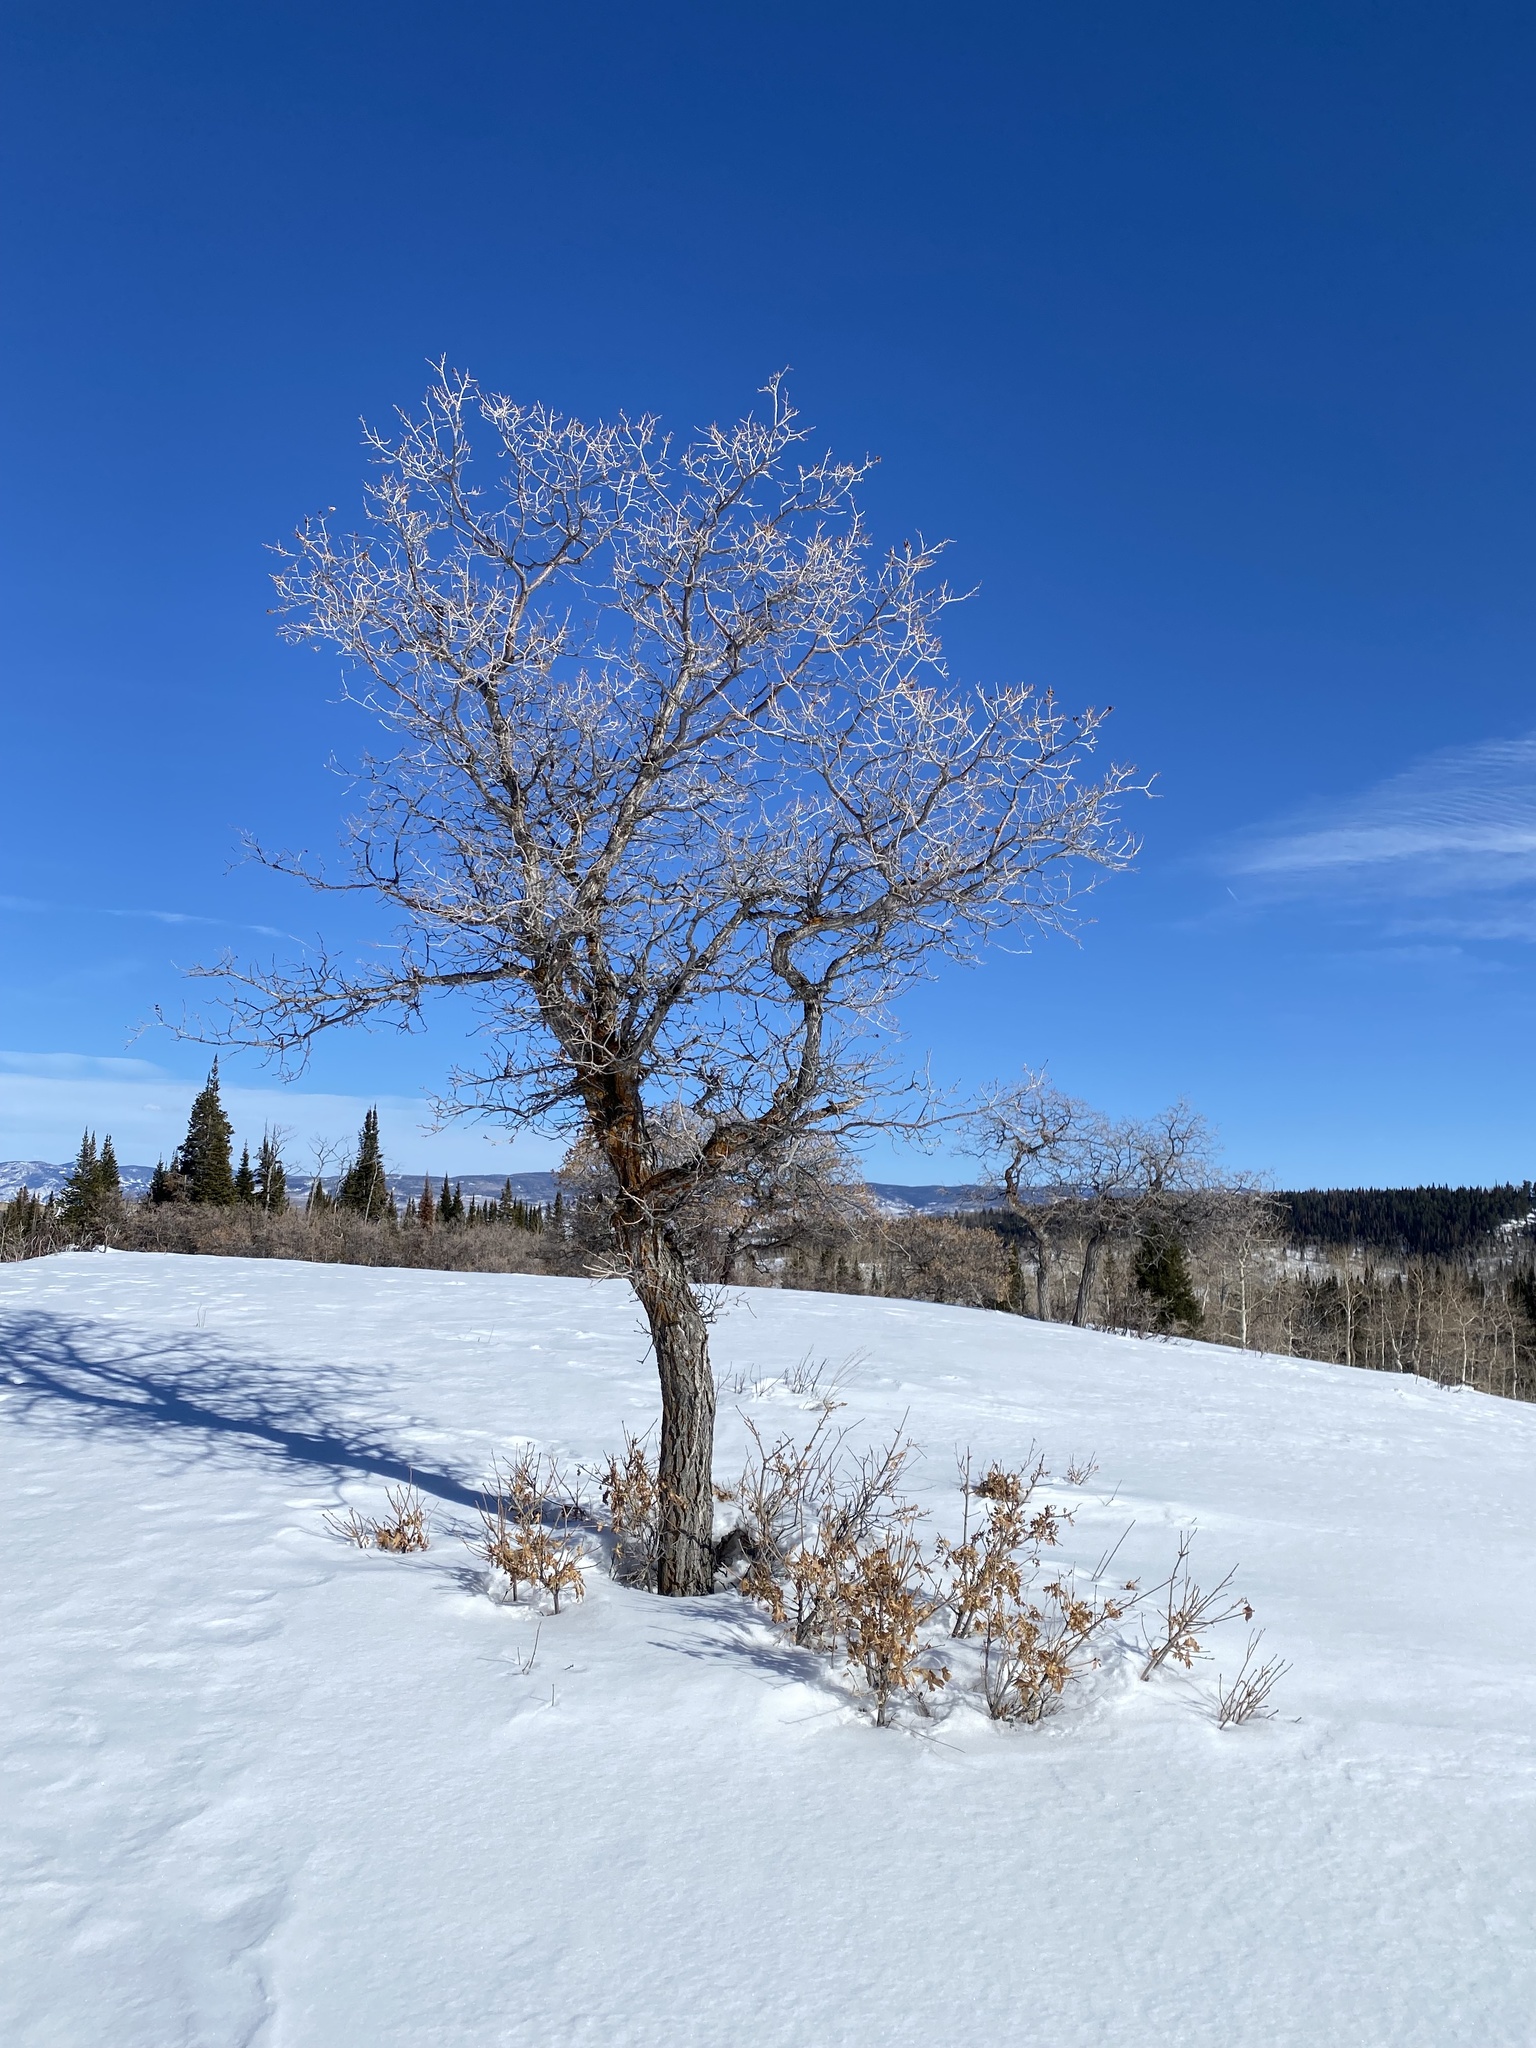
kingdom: Plantae
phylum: Tracheophyta
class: Magnoliopsida
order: Fagales
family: Fagaceae
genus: Quercus
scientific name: Quercus gambelii
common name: Gambel oak
